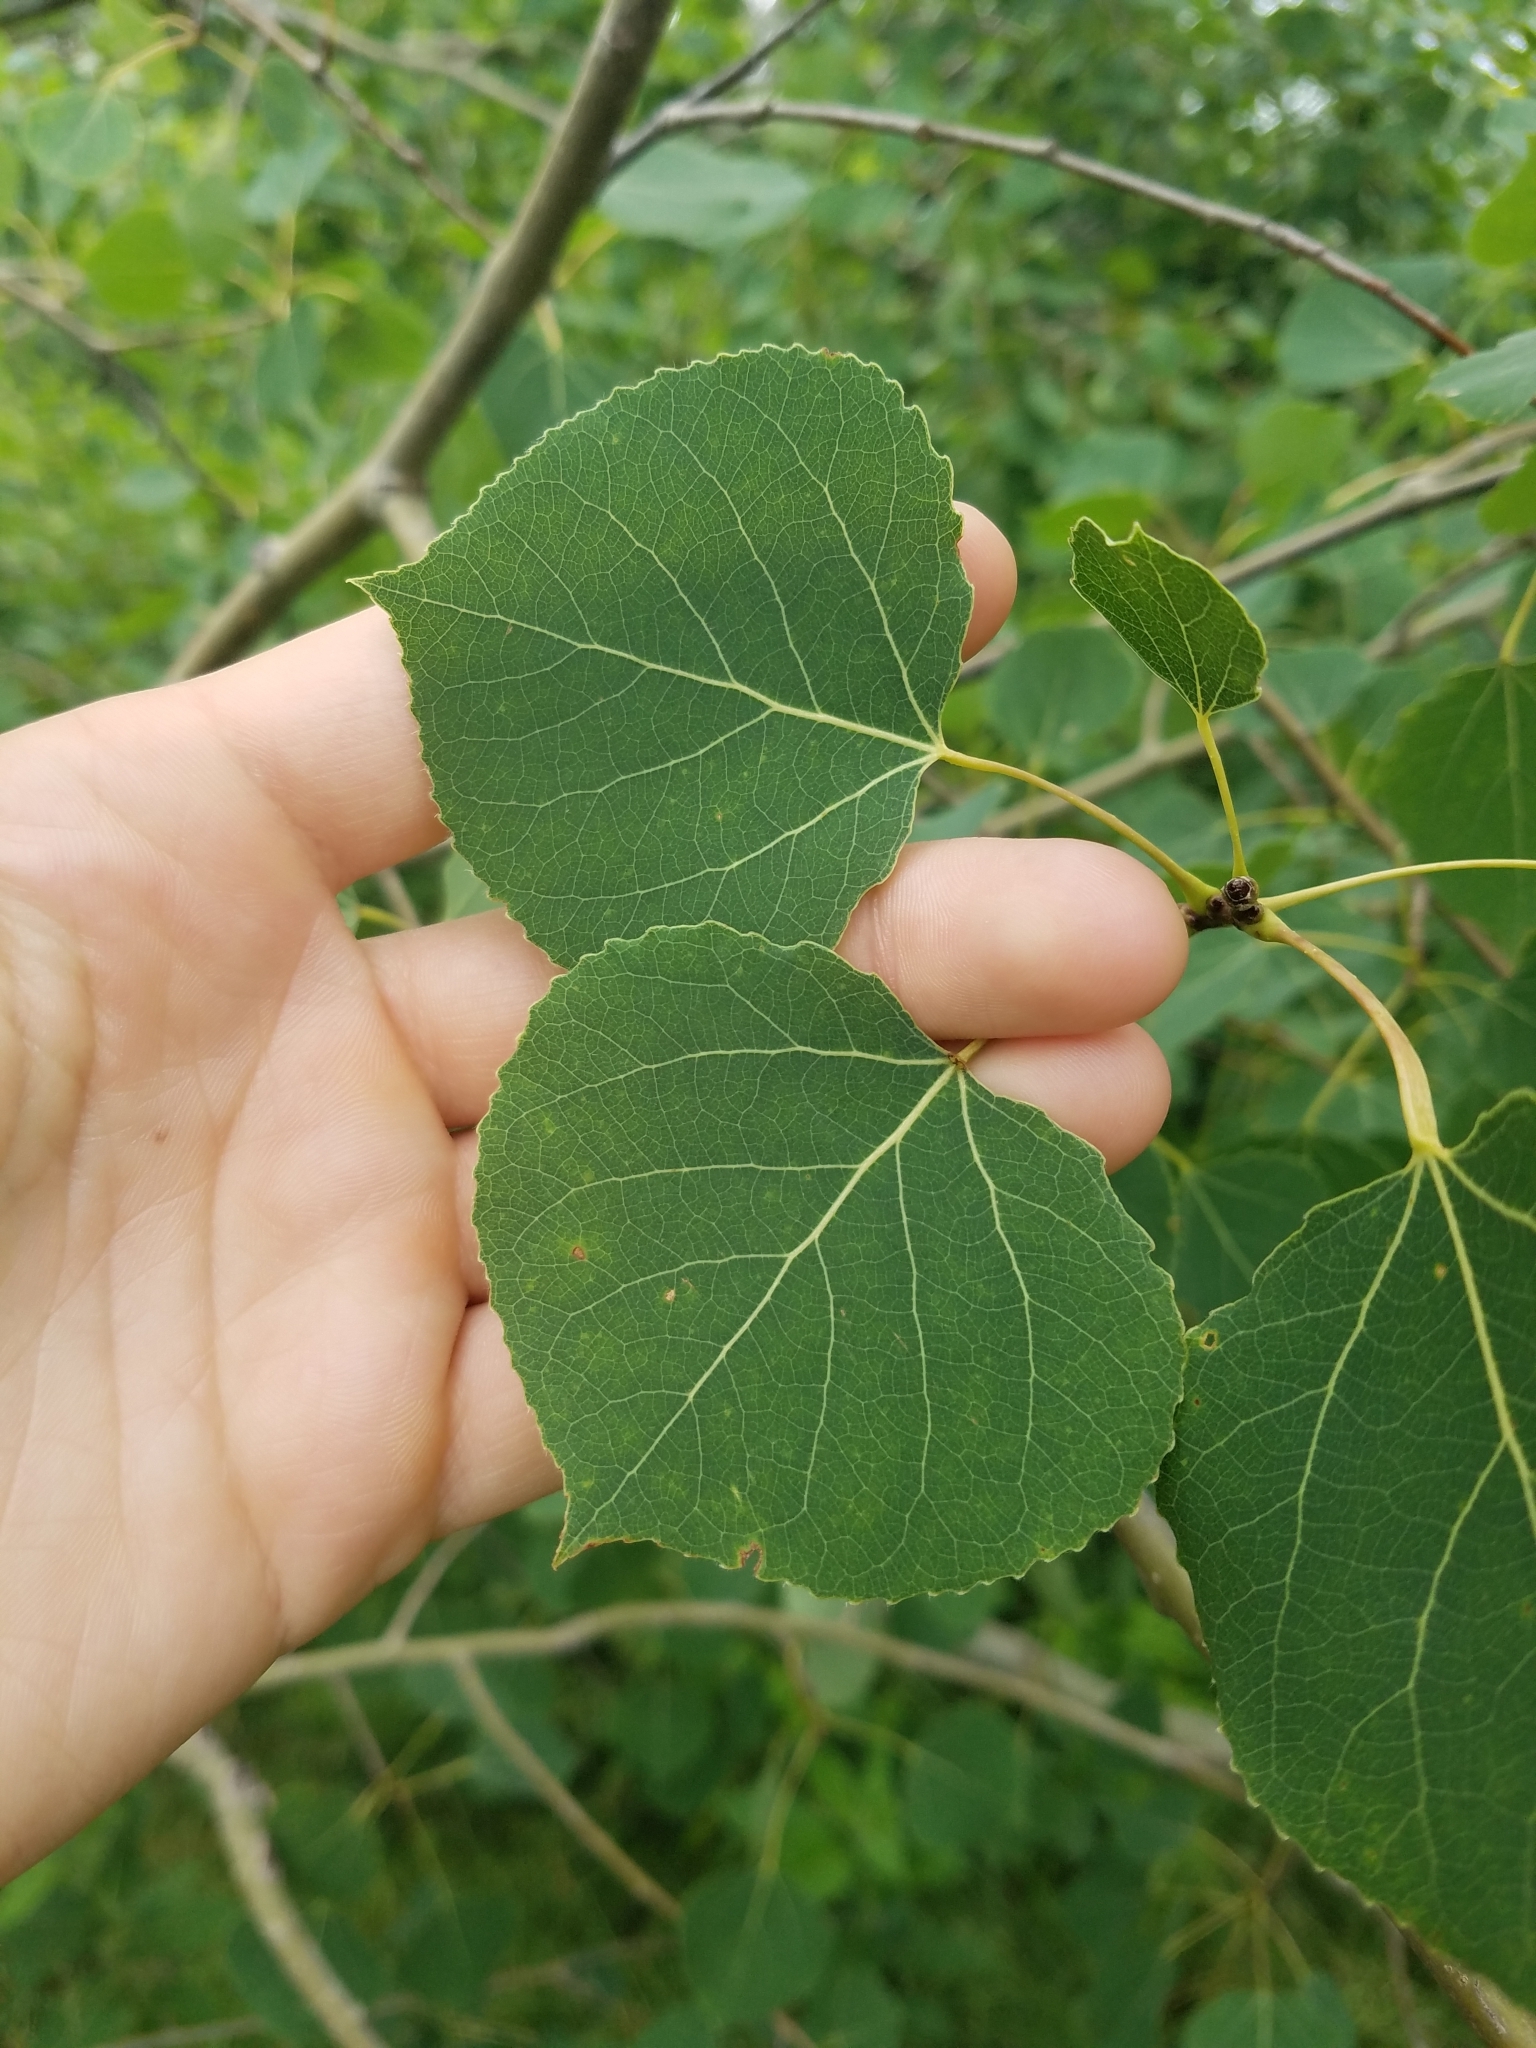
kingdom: Plantae
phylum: Tracheophyta
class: Magnoliopsida
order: Malpighiales
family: Salicaceae
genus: Populus
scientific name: Populus tremuloides
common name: Quaking aspen
